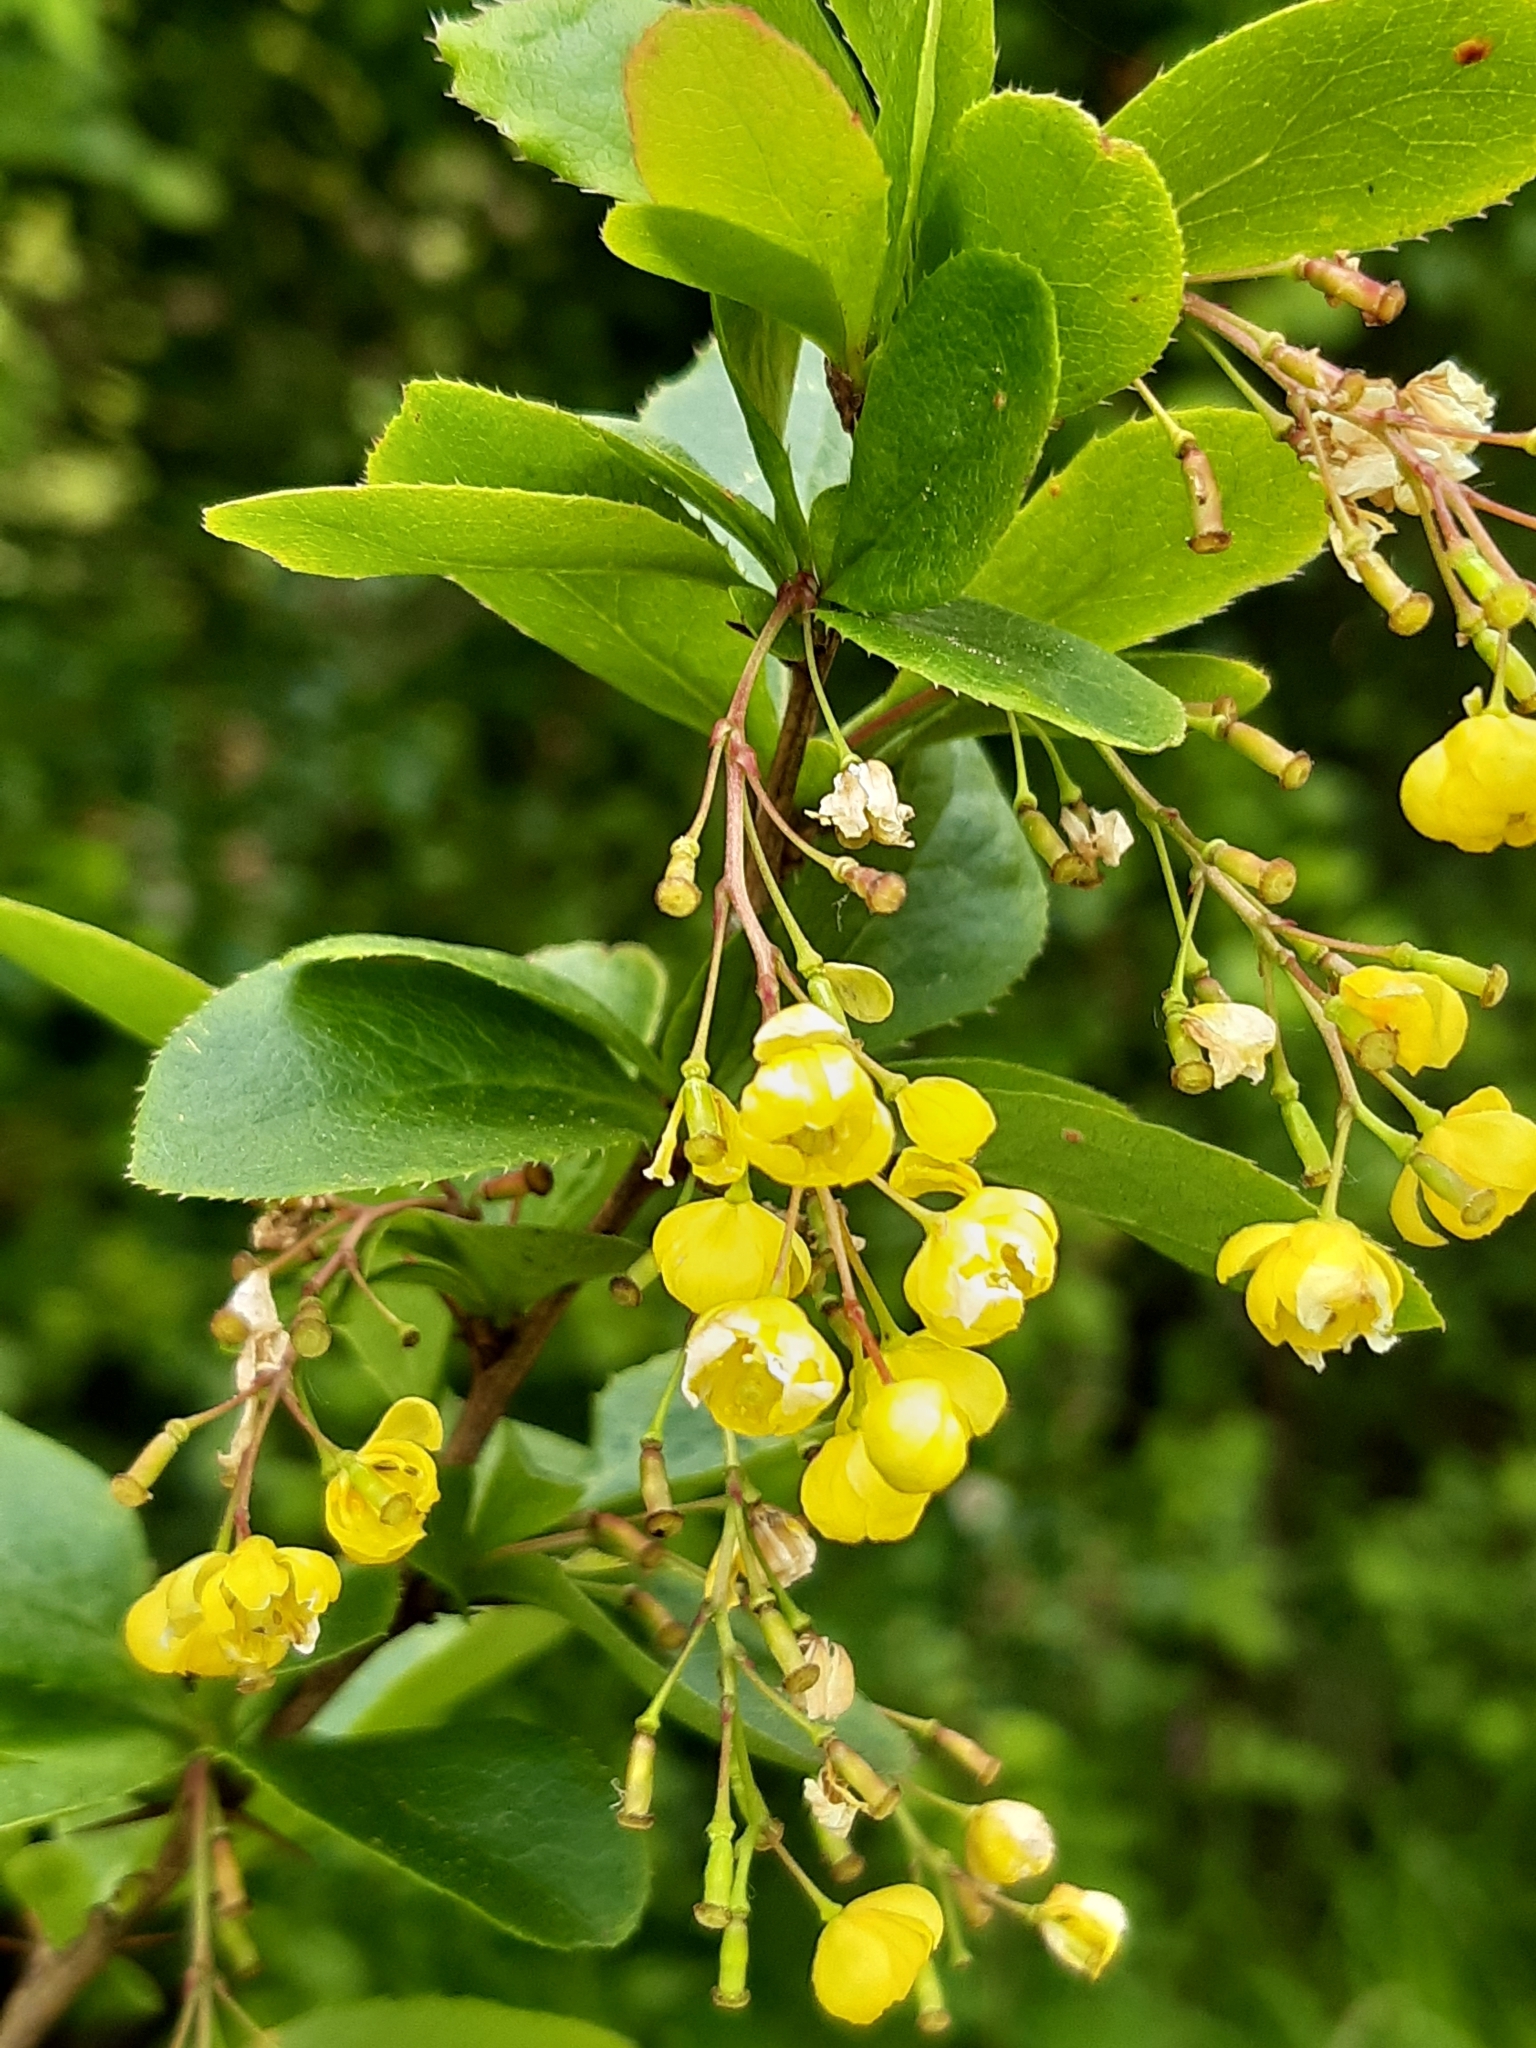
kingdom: Plantae
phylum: Tracheophyta
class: Magnoliopsida
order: Ranunculales
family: Berberidaceae
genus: Berberis
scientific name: Berberis vulgaris
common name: Barberry
